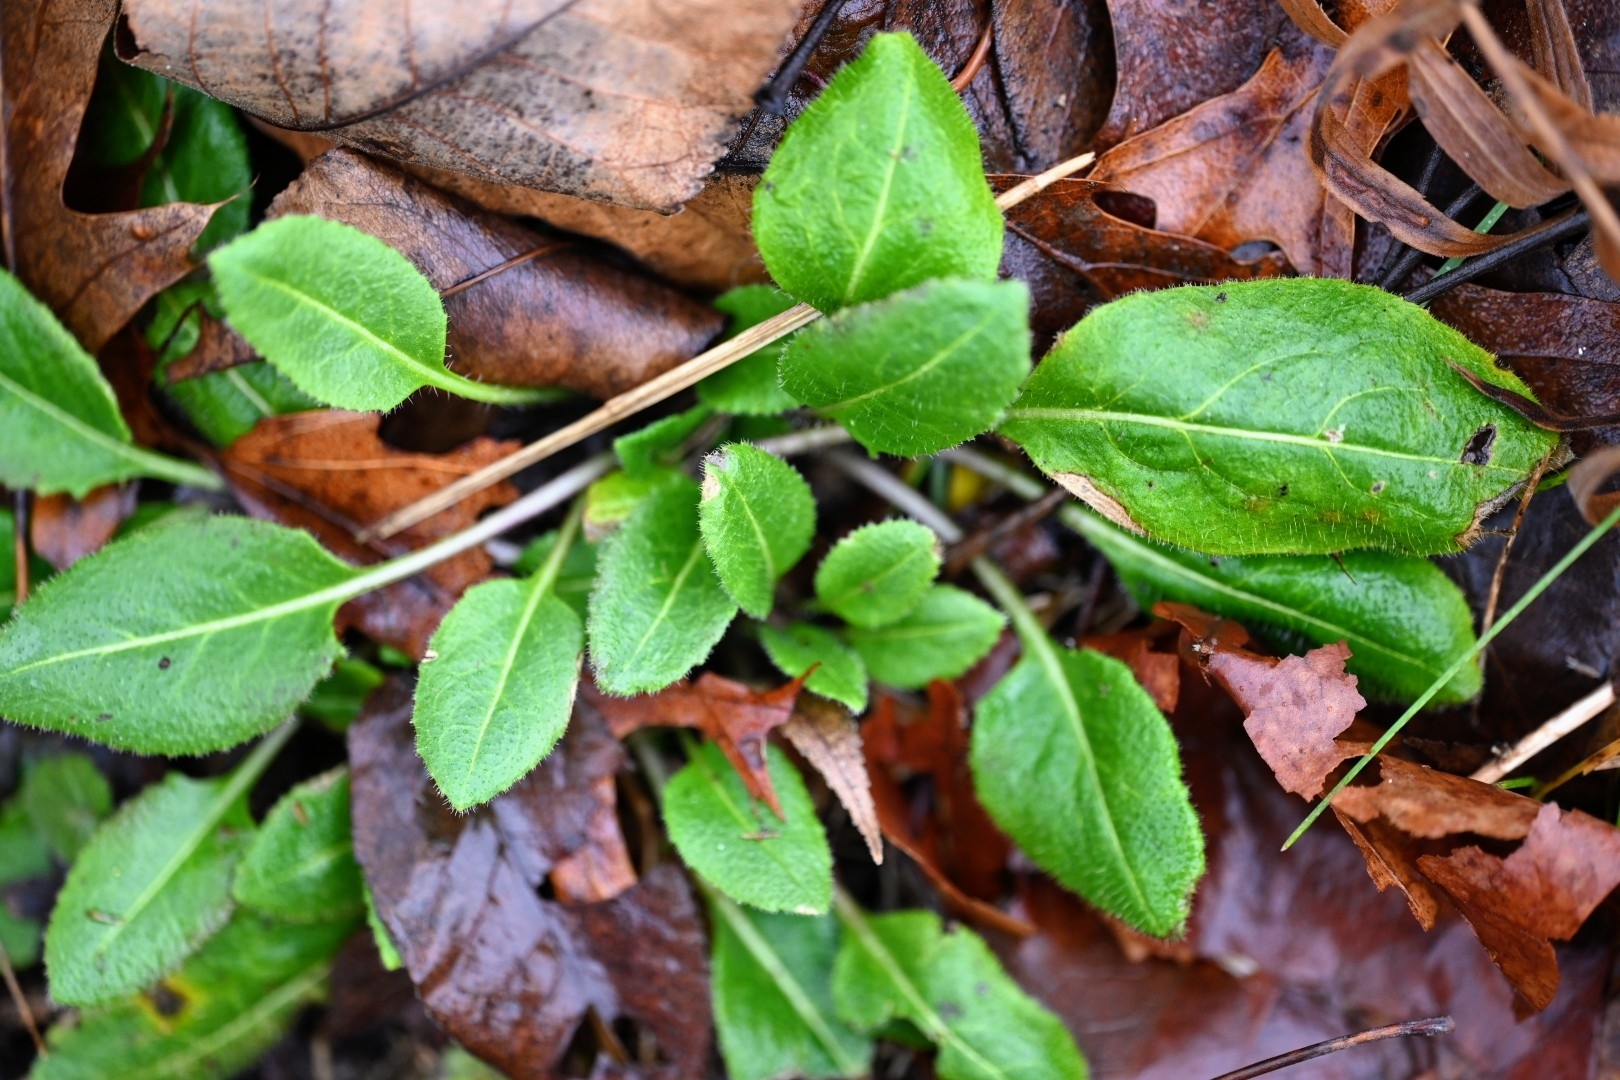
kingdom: Plantae
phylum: Tracheophyta
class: Magnoliopsida
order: Brassicales
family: Brassicaceae
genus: Hesperis
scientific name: Hesperis matronalis
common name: Dame's-violet
